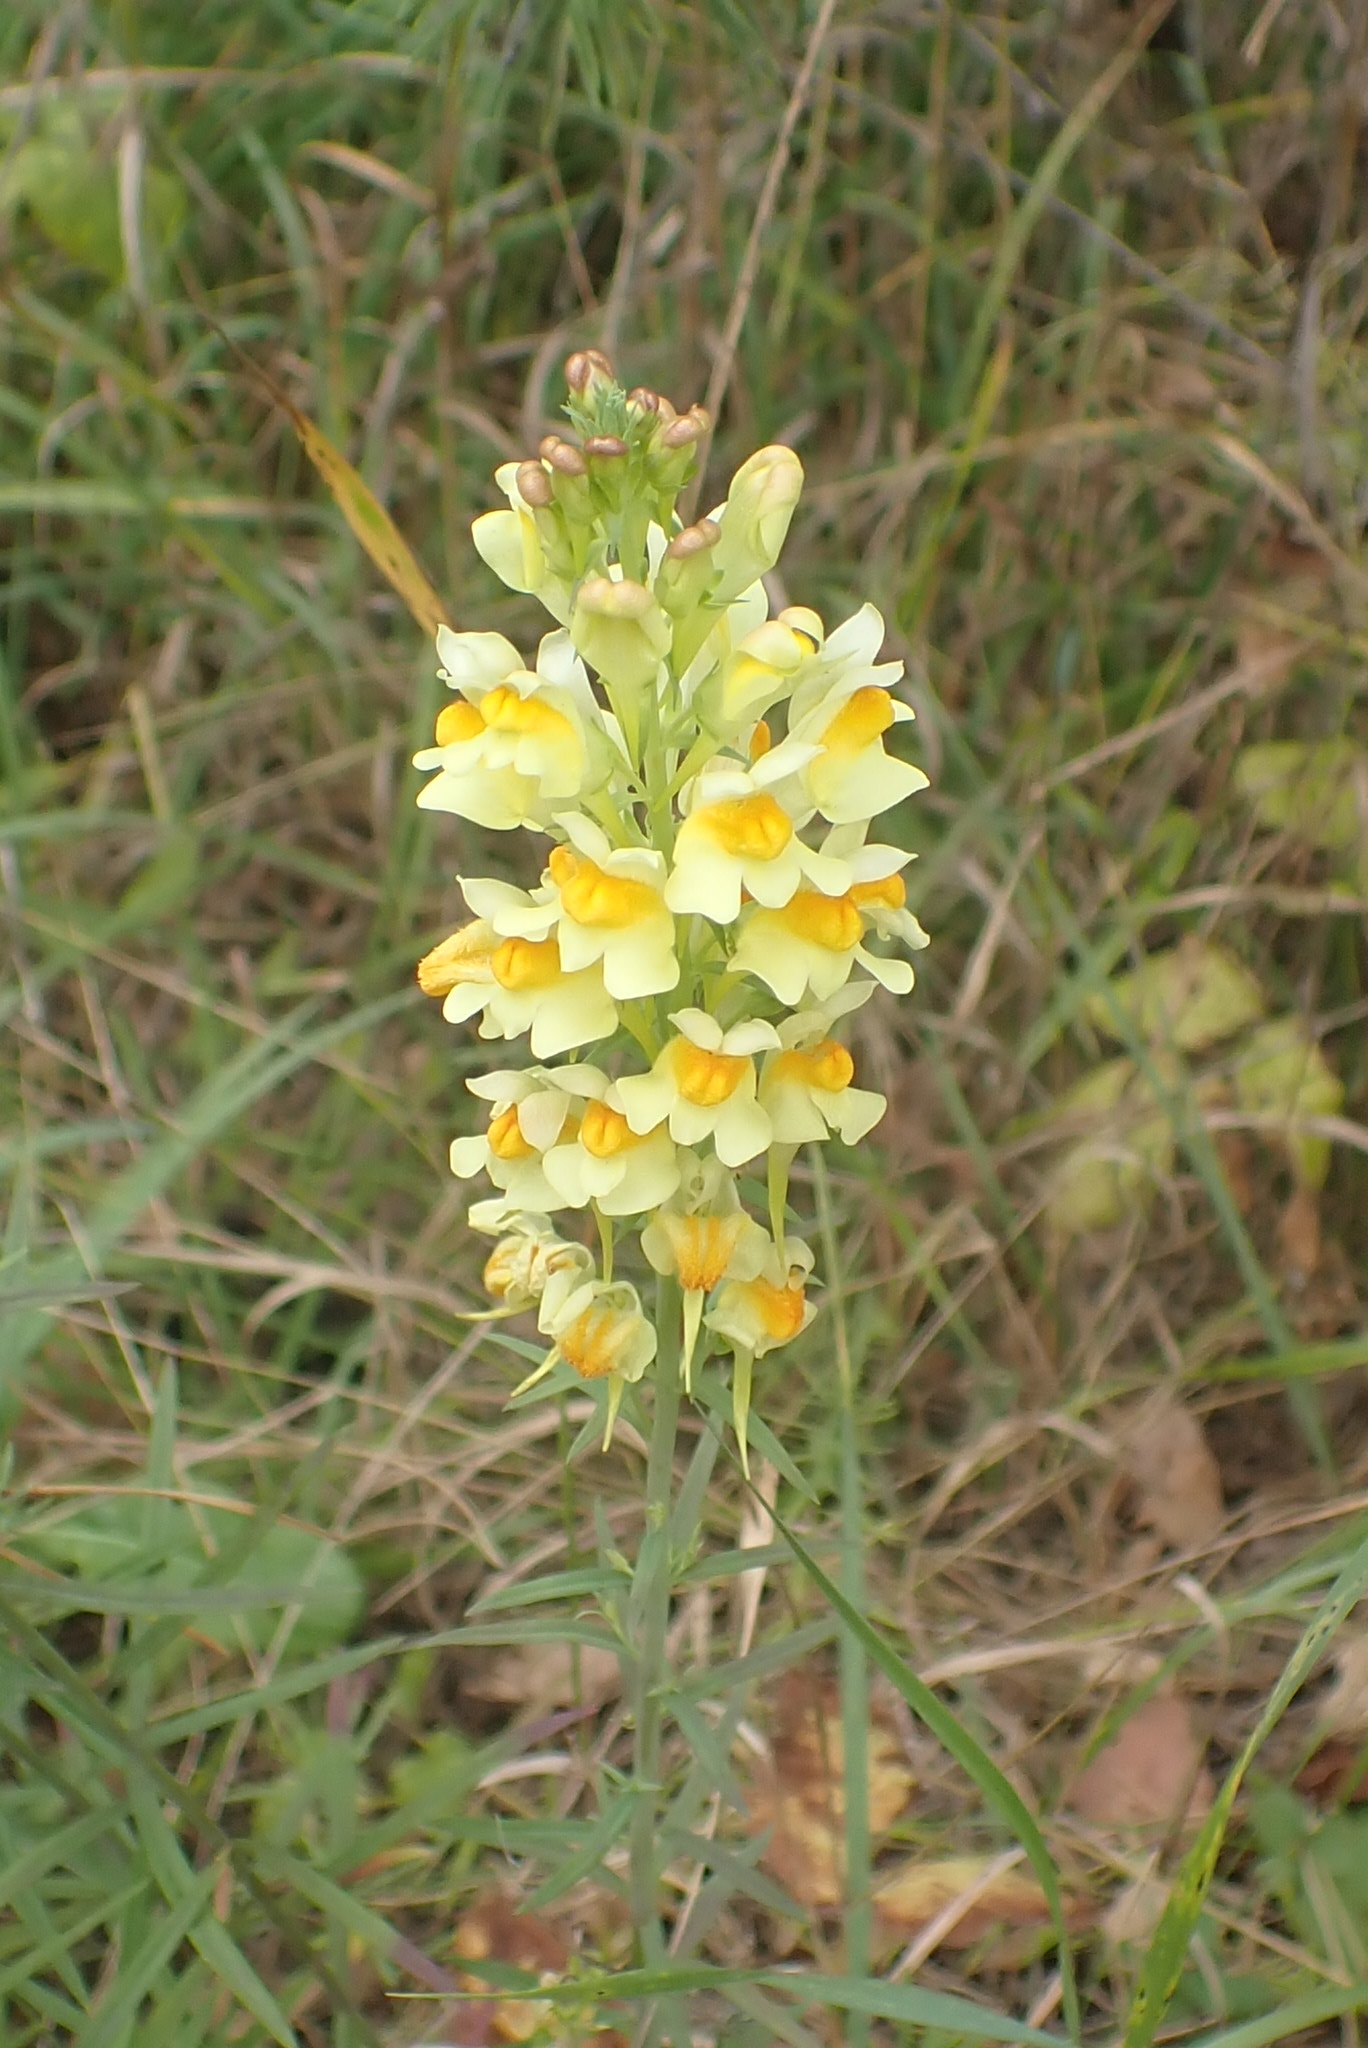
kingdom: Plantae
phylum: Tracheophyta
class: Magnoliopsida
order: Lamiales
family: Plantaginaceae
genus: Linaria
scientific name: Linaria vulgaris
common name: Butter and eggs
